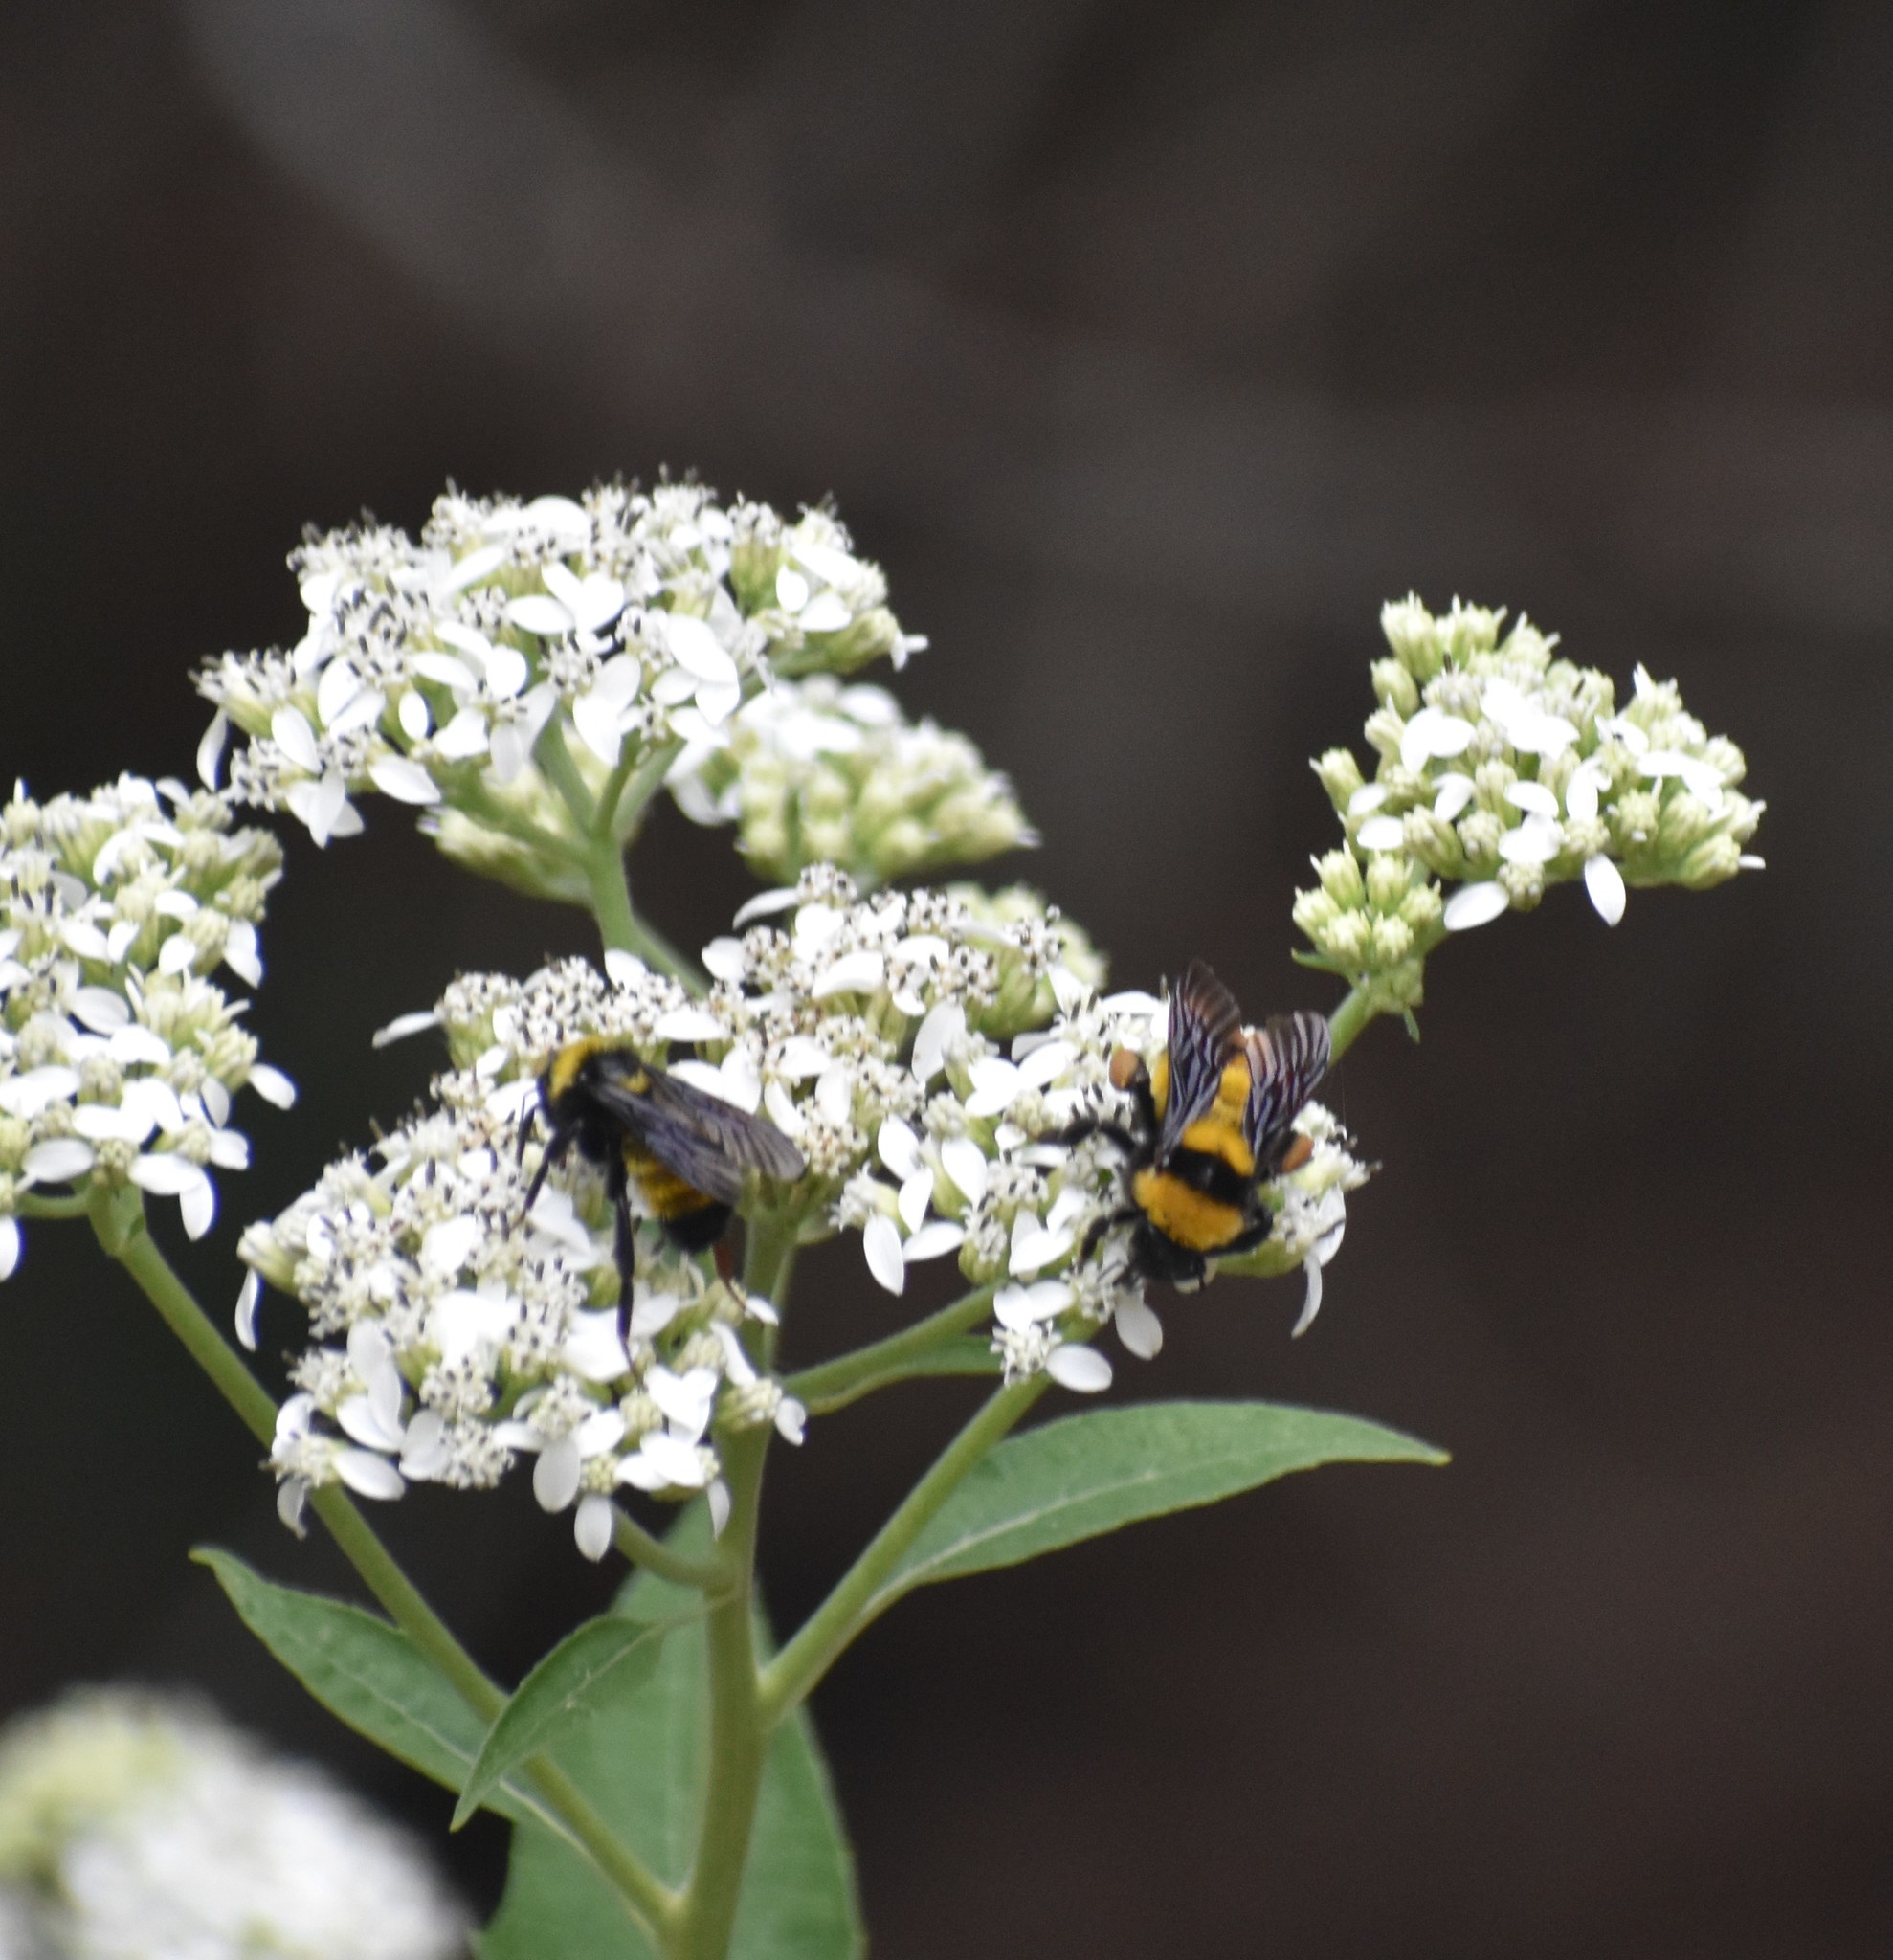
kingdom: Animalia
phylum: Arthropoda
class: Insecta
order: Hymenoptera
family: Apidae
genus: Bombus
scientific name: Bombus sonorus
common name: Sonoran bumble bee
